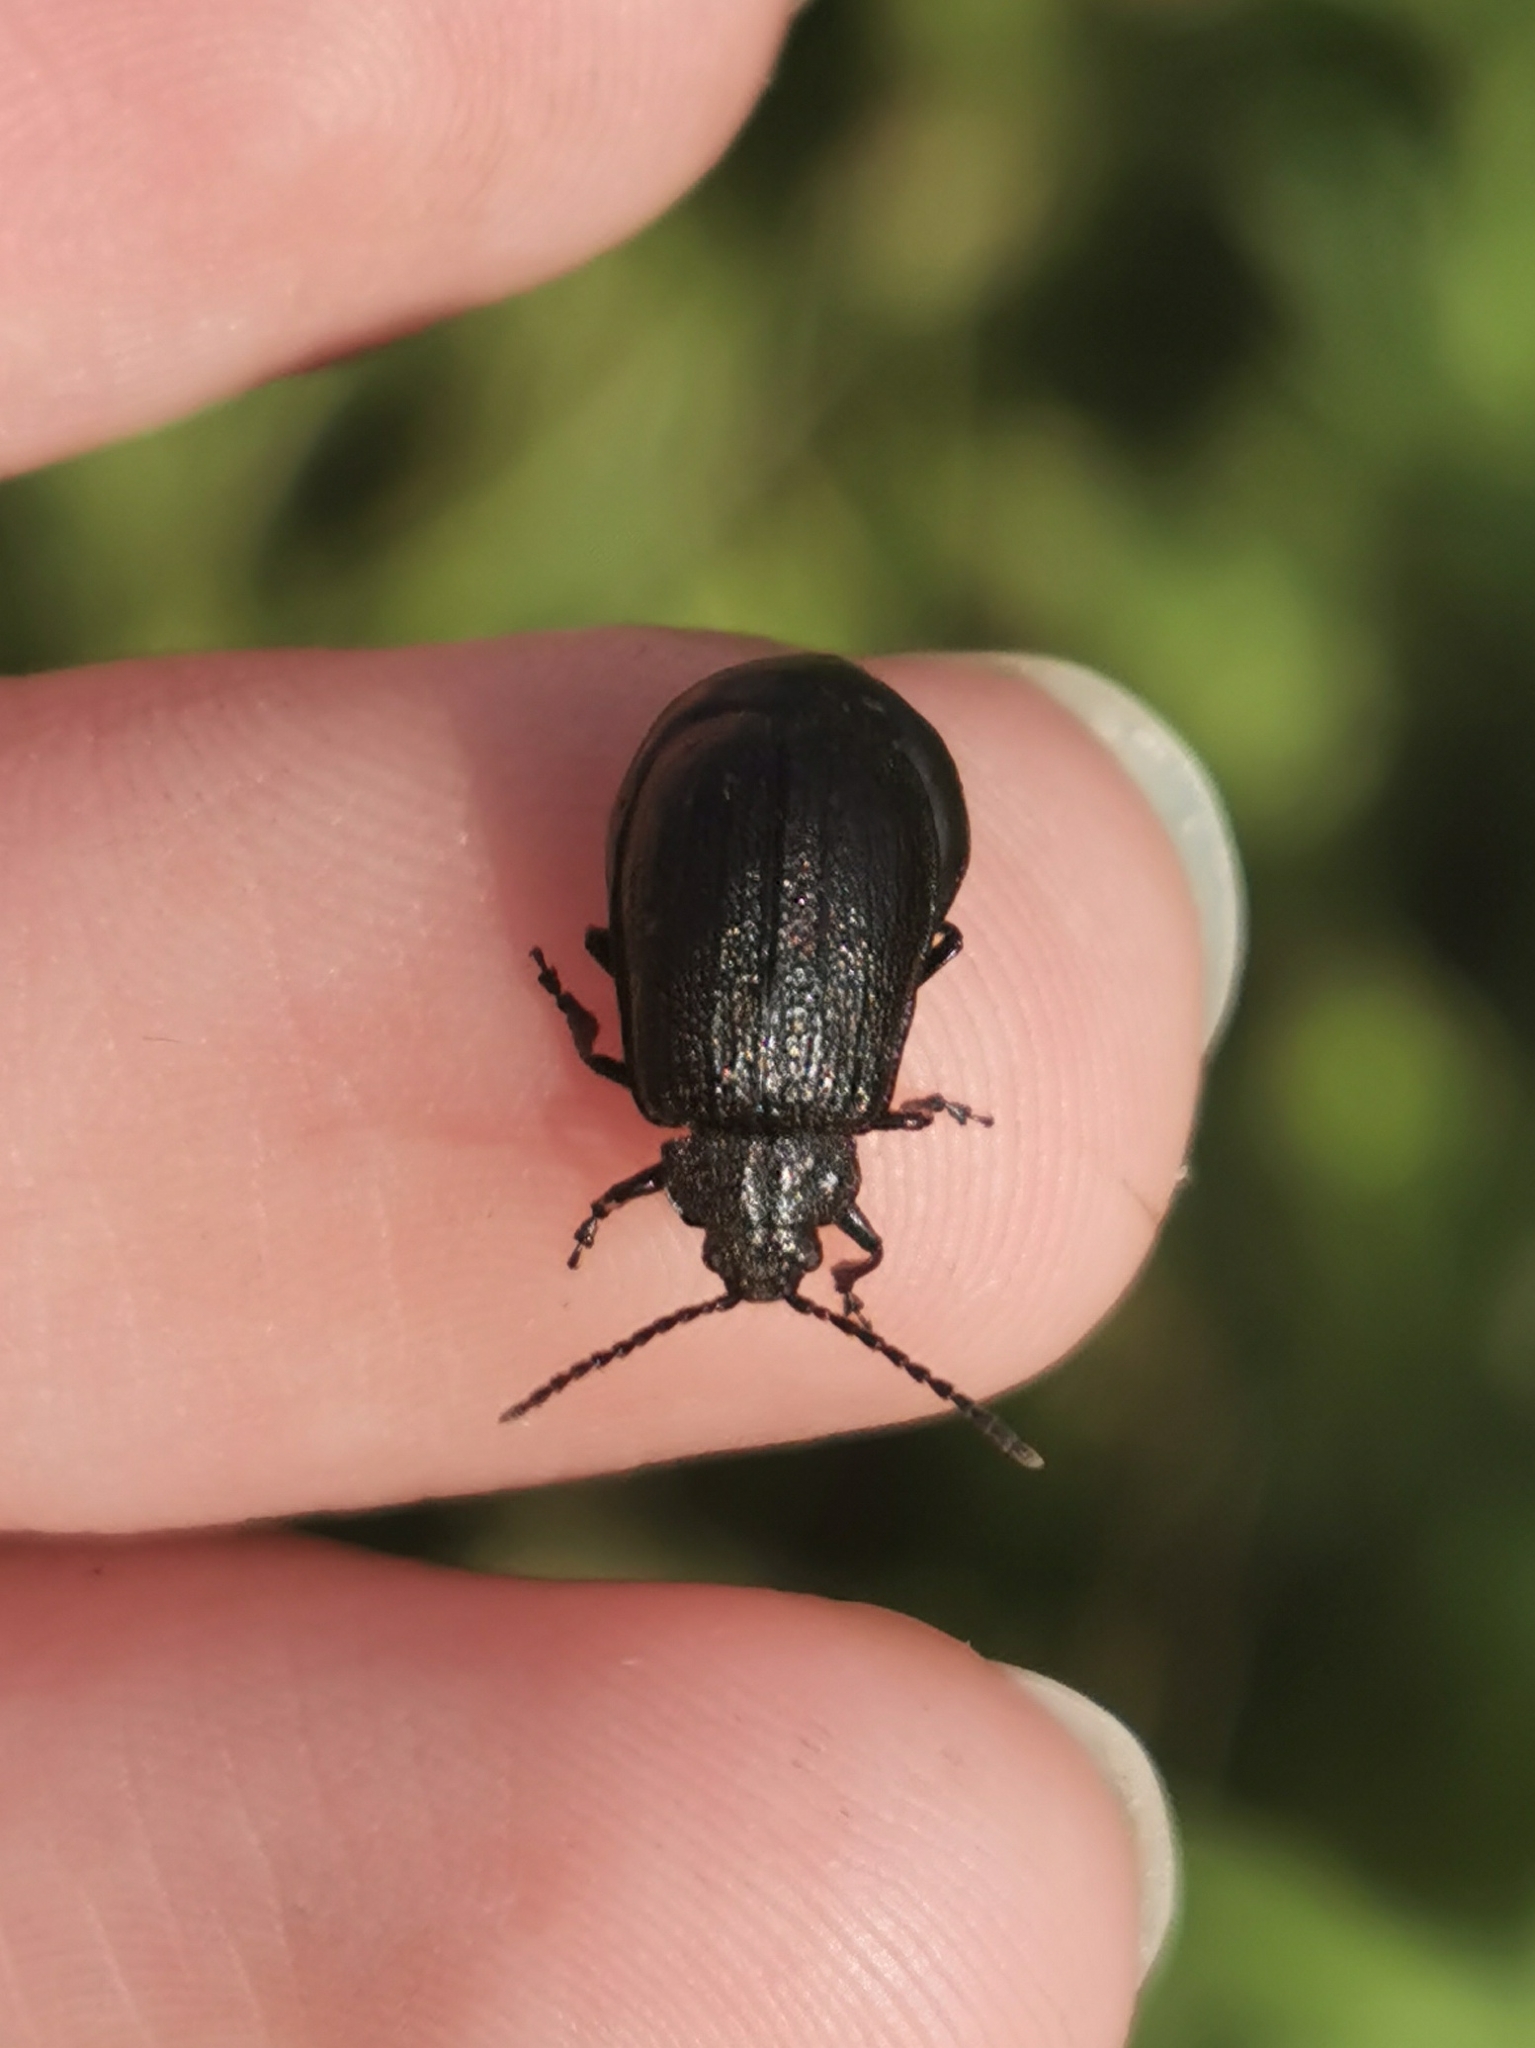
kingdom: Animalia
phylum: Arthropoda
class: Insecta
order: Coleoptera
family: Chrysomelidae
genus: Galeruca
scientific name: Galeruca tanaceti
